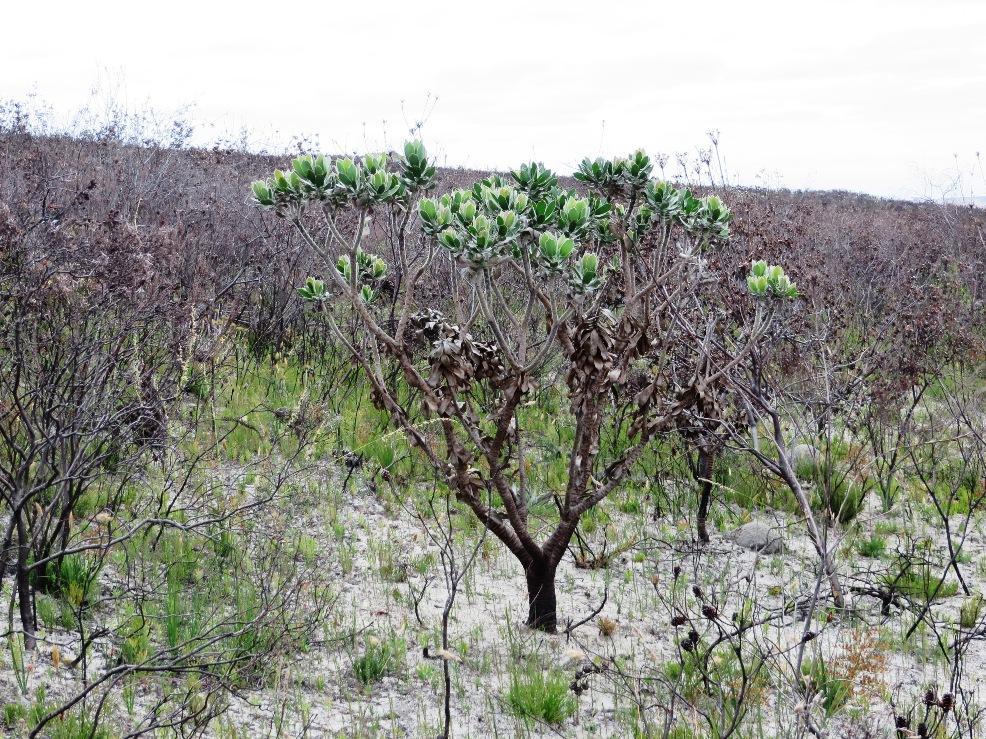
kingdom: Plantae
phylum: Tracheophyta
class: Magnoliopsida
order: Proteales
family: Proteaceae
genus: Leucospermum
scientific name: Leucospermum conocarpodendron
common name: Tree pincushion
